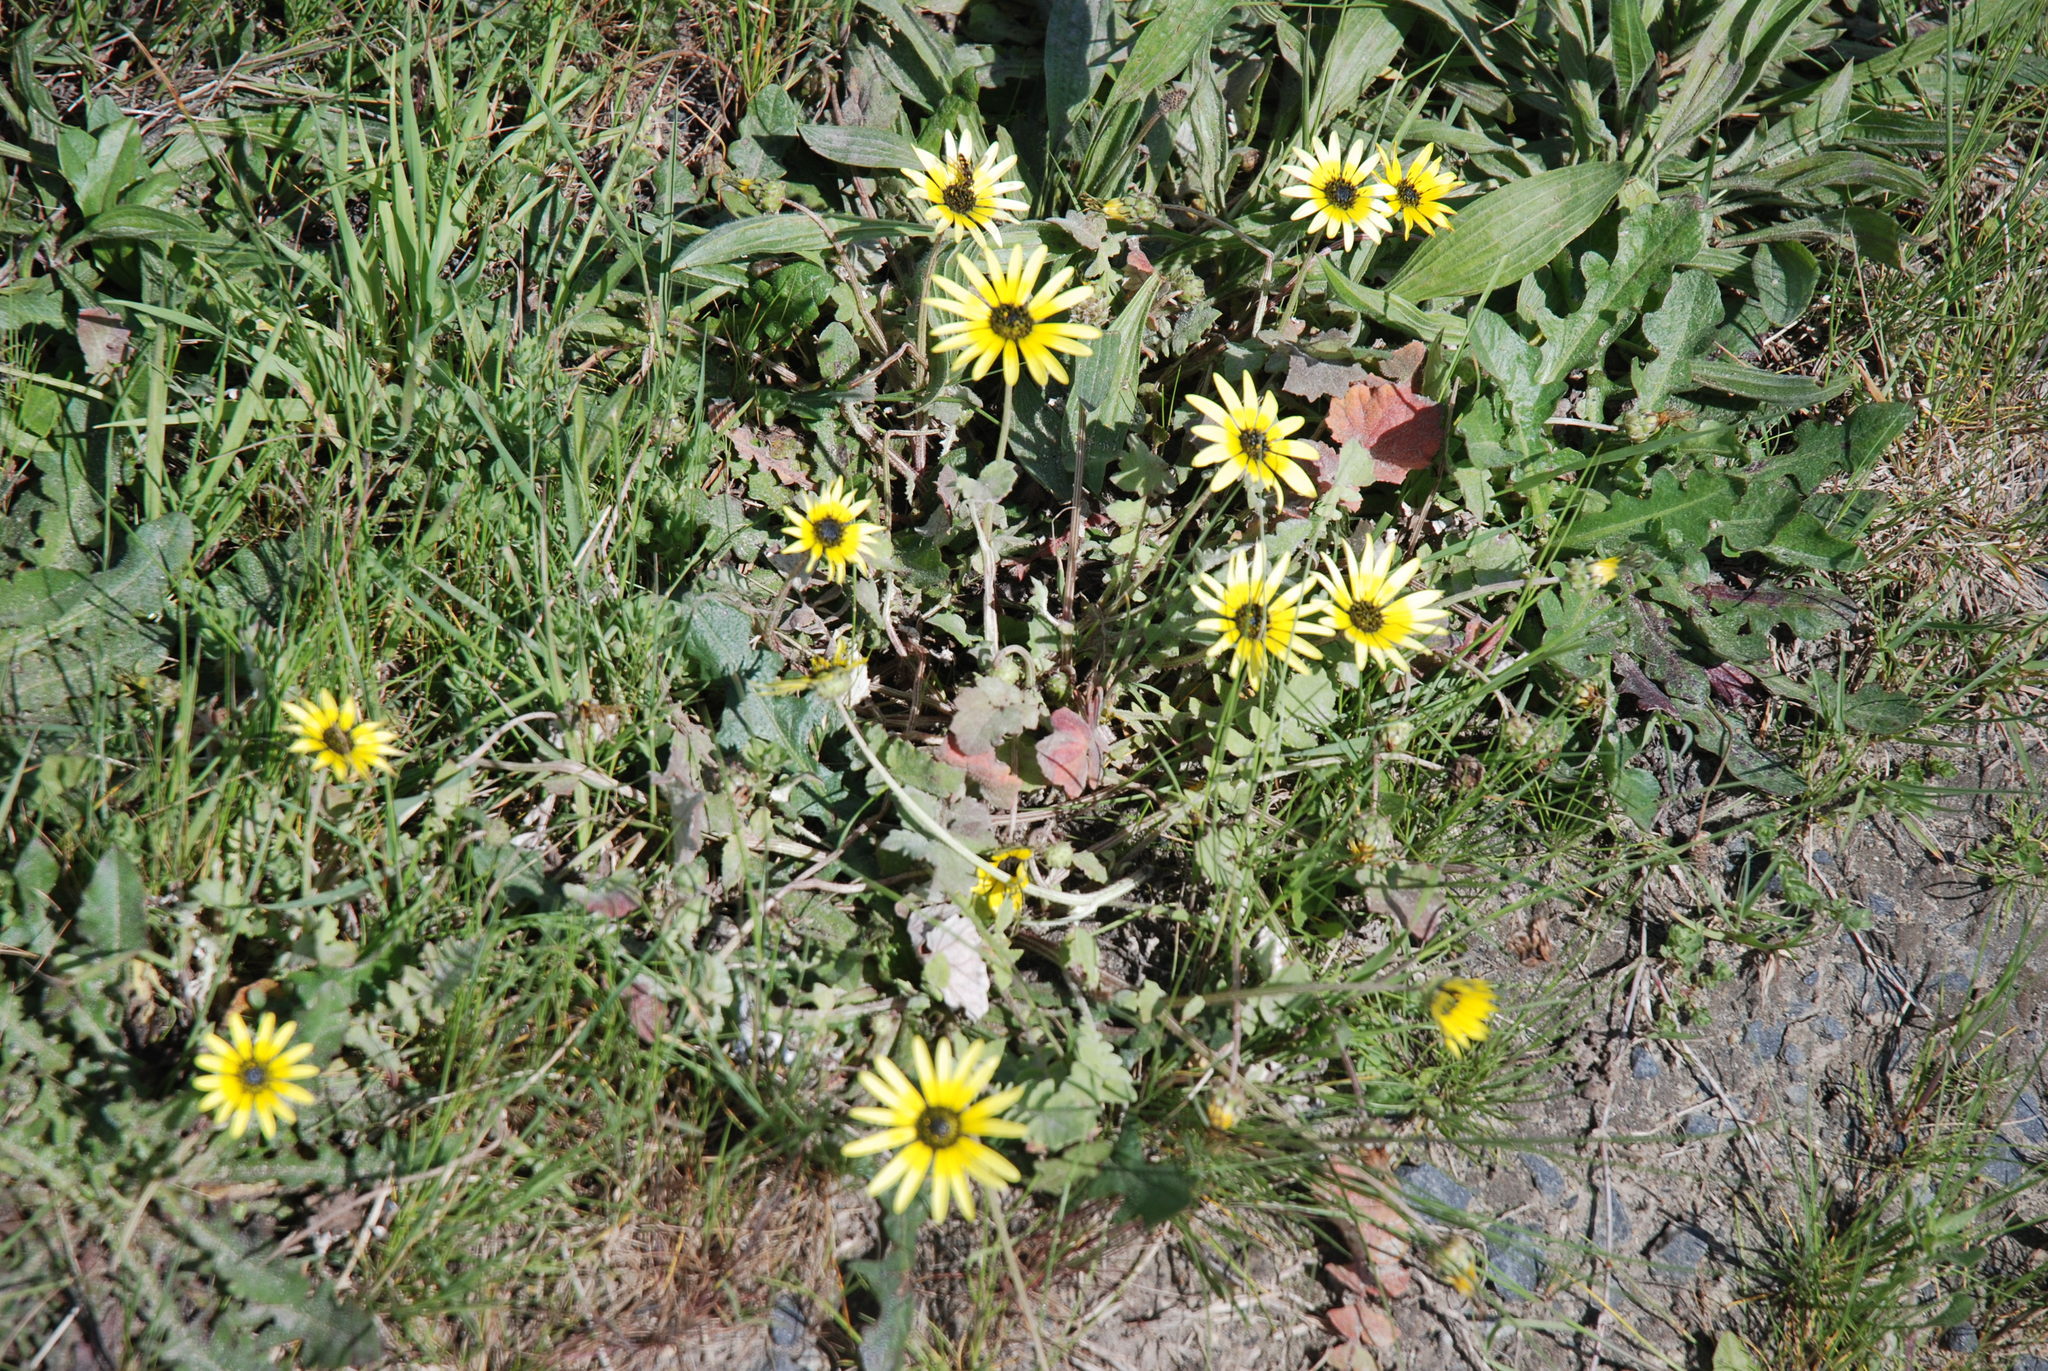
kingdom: Plantae
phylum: Tracheophyta
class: Magnoliopsida
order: Asterales
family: Asteraceae
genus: Arctotheca
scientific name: Arctotheca calendula
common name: Capeweed
